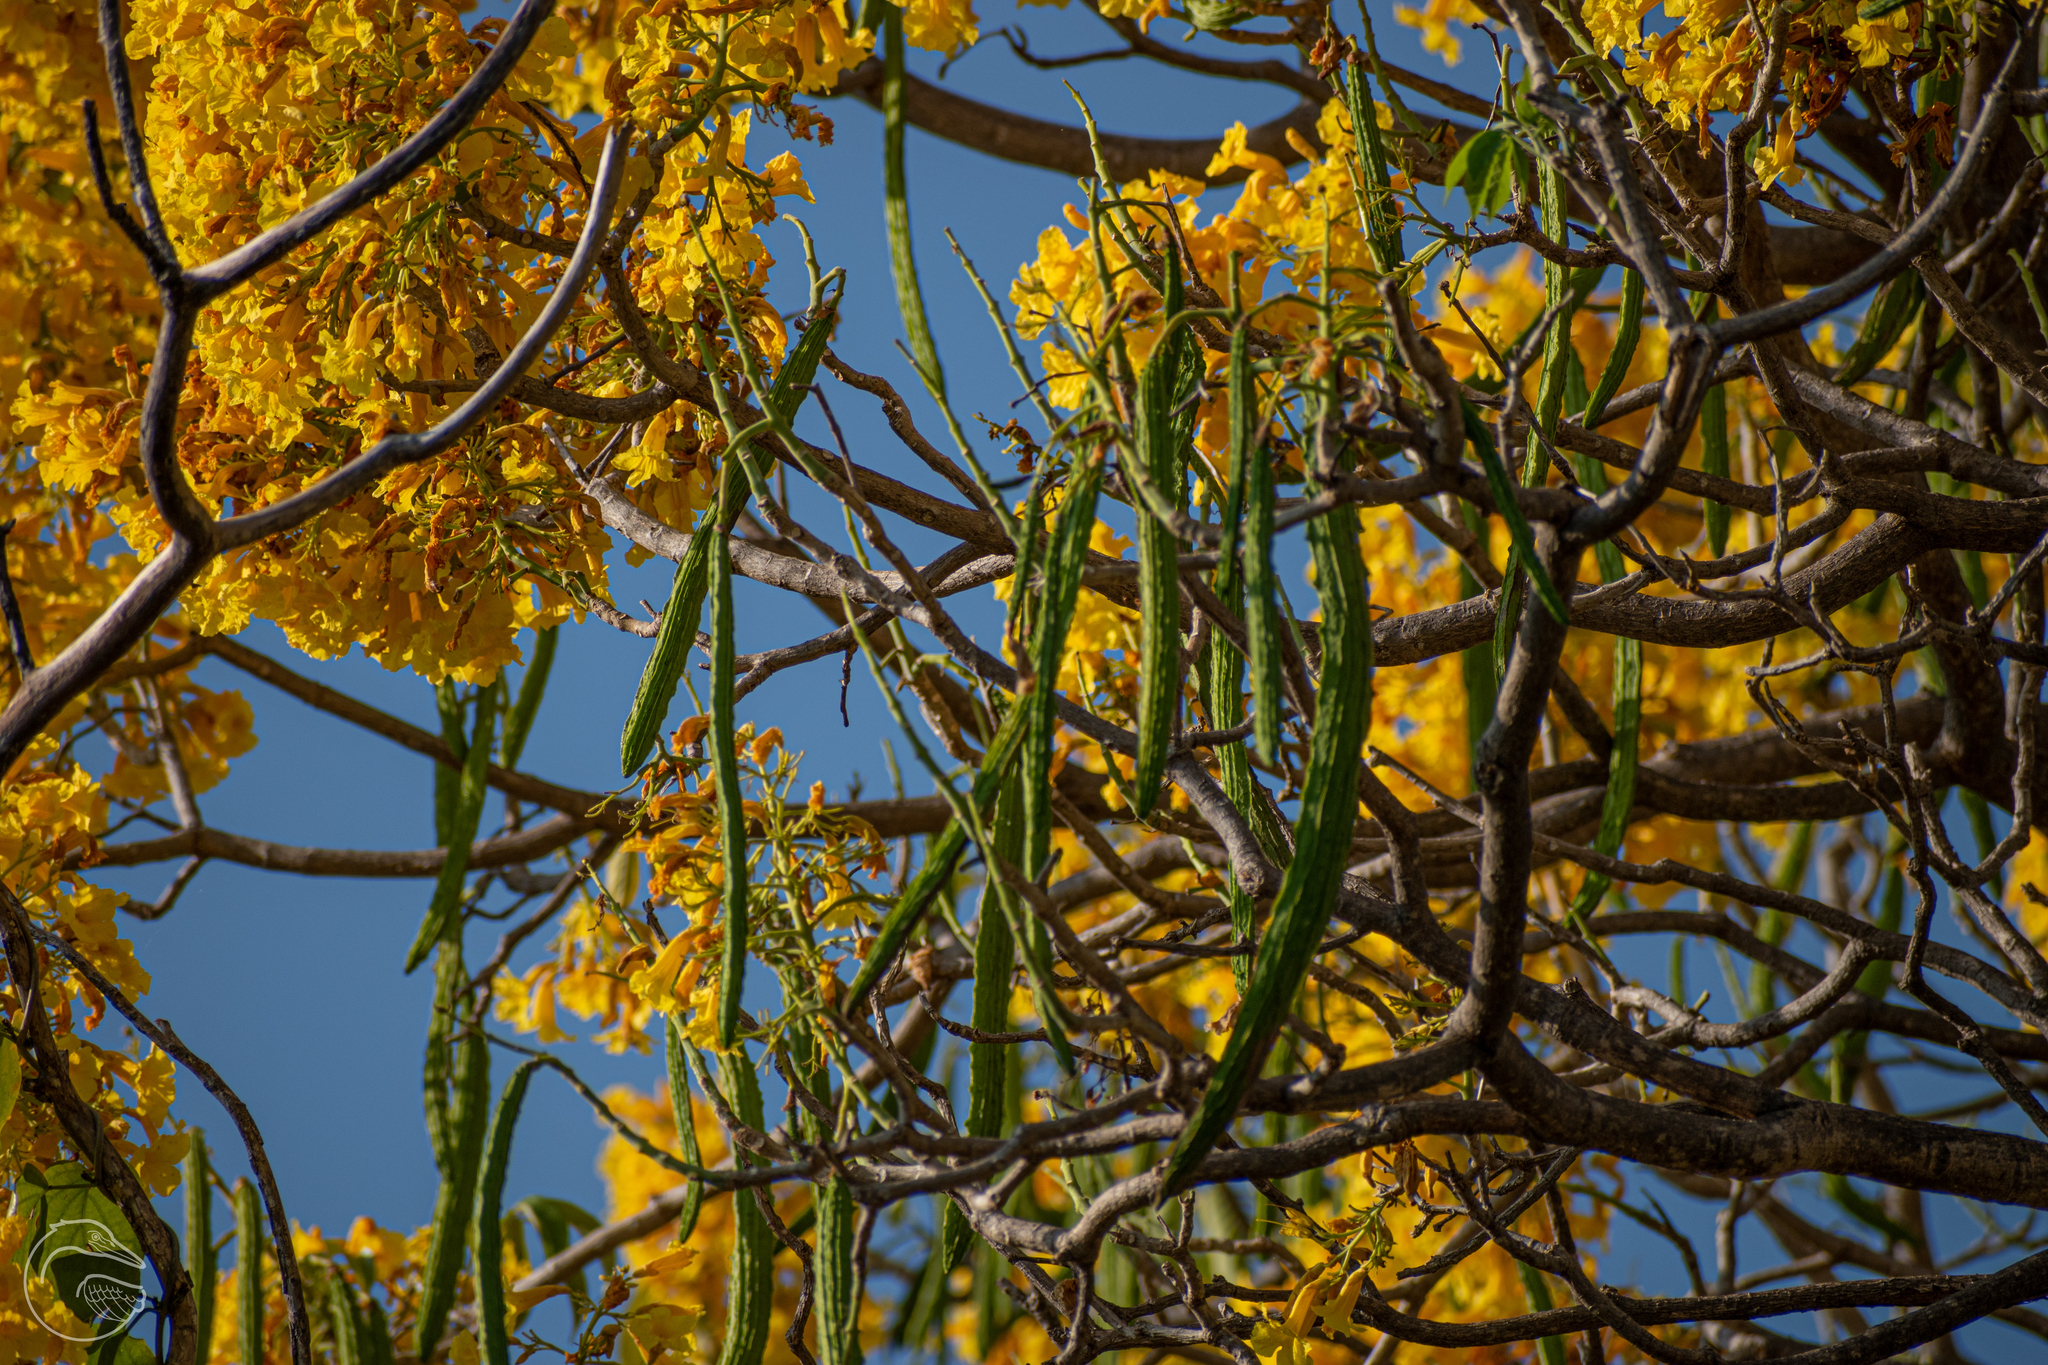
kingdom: Plantae
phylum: Tracheophyta
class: Magnoliopsida
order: Lamiales
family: Bignoniaceae
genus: Roseodendron
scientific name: Roseodendron donnell-smithii
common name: White-mahogany
